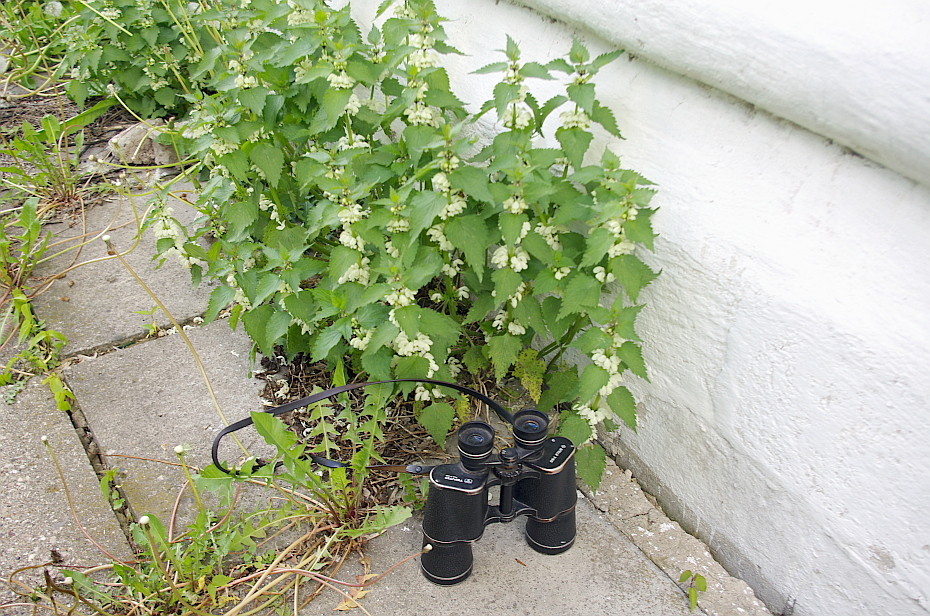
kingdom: Plantae
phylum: Tracheophyta
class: Magnoliopsida
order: Lamiales
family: Lamiaceae
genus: Lamium
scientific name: Lamium album
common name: White dead-nettle
